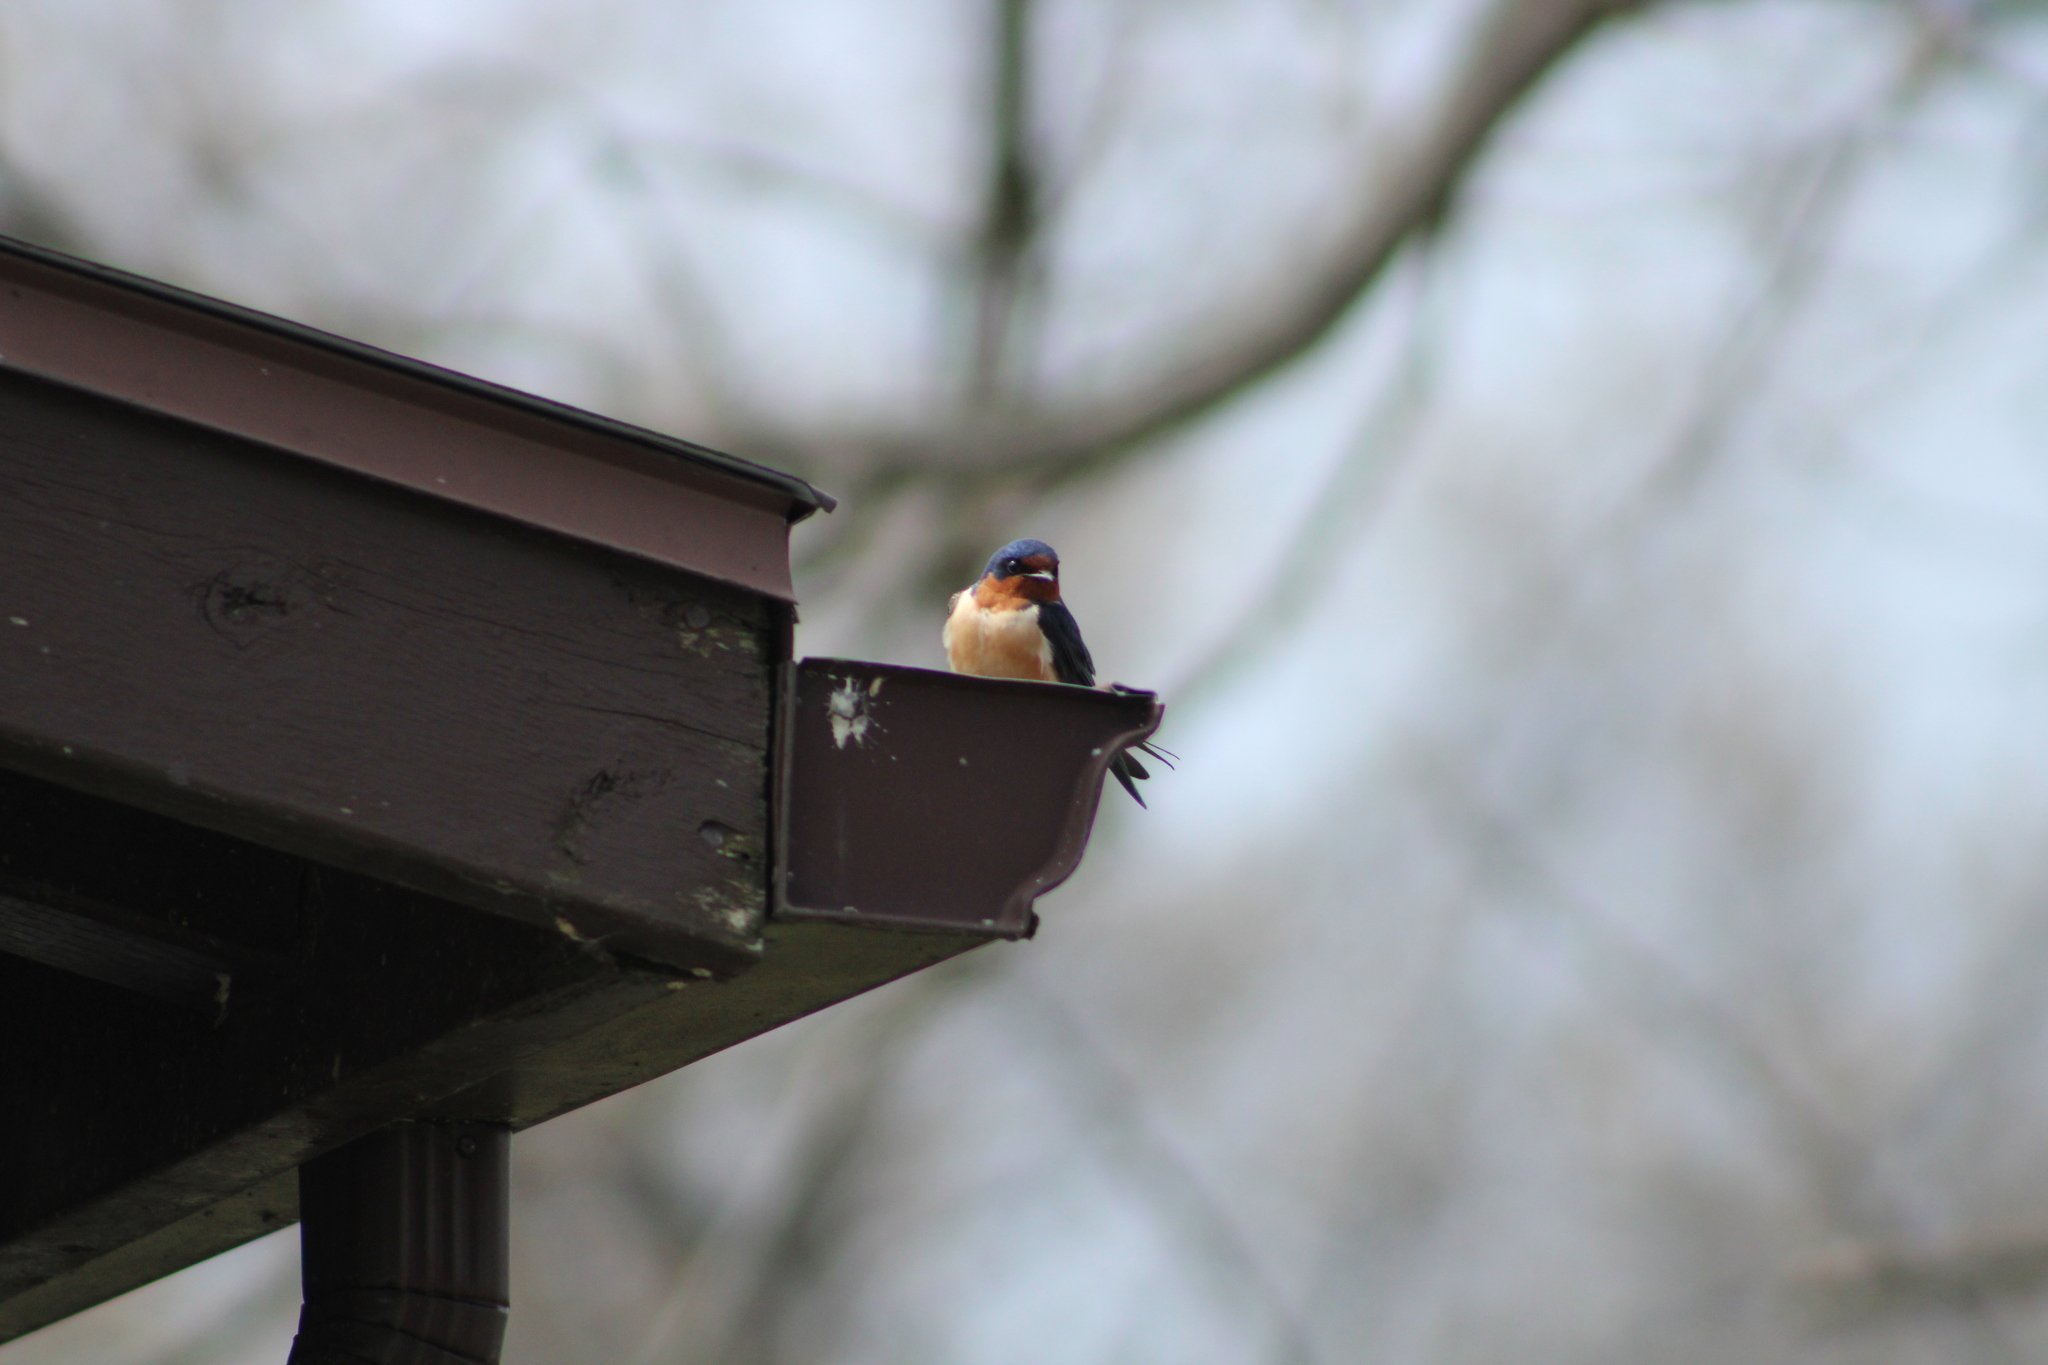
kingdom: Animalia
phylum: Chordata
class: Aves
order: Passeriformes
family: Hirundinidae
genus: Hirundo
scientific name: Hirundo rustica
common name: Barn swallow
